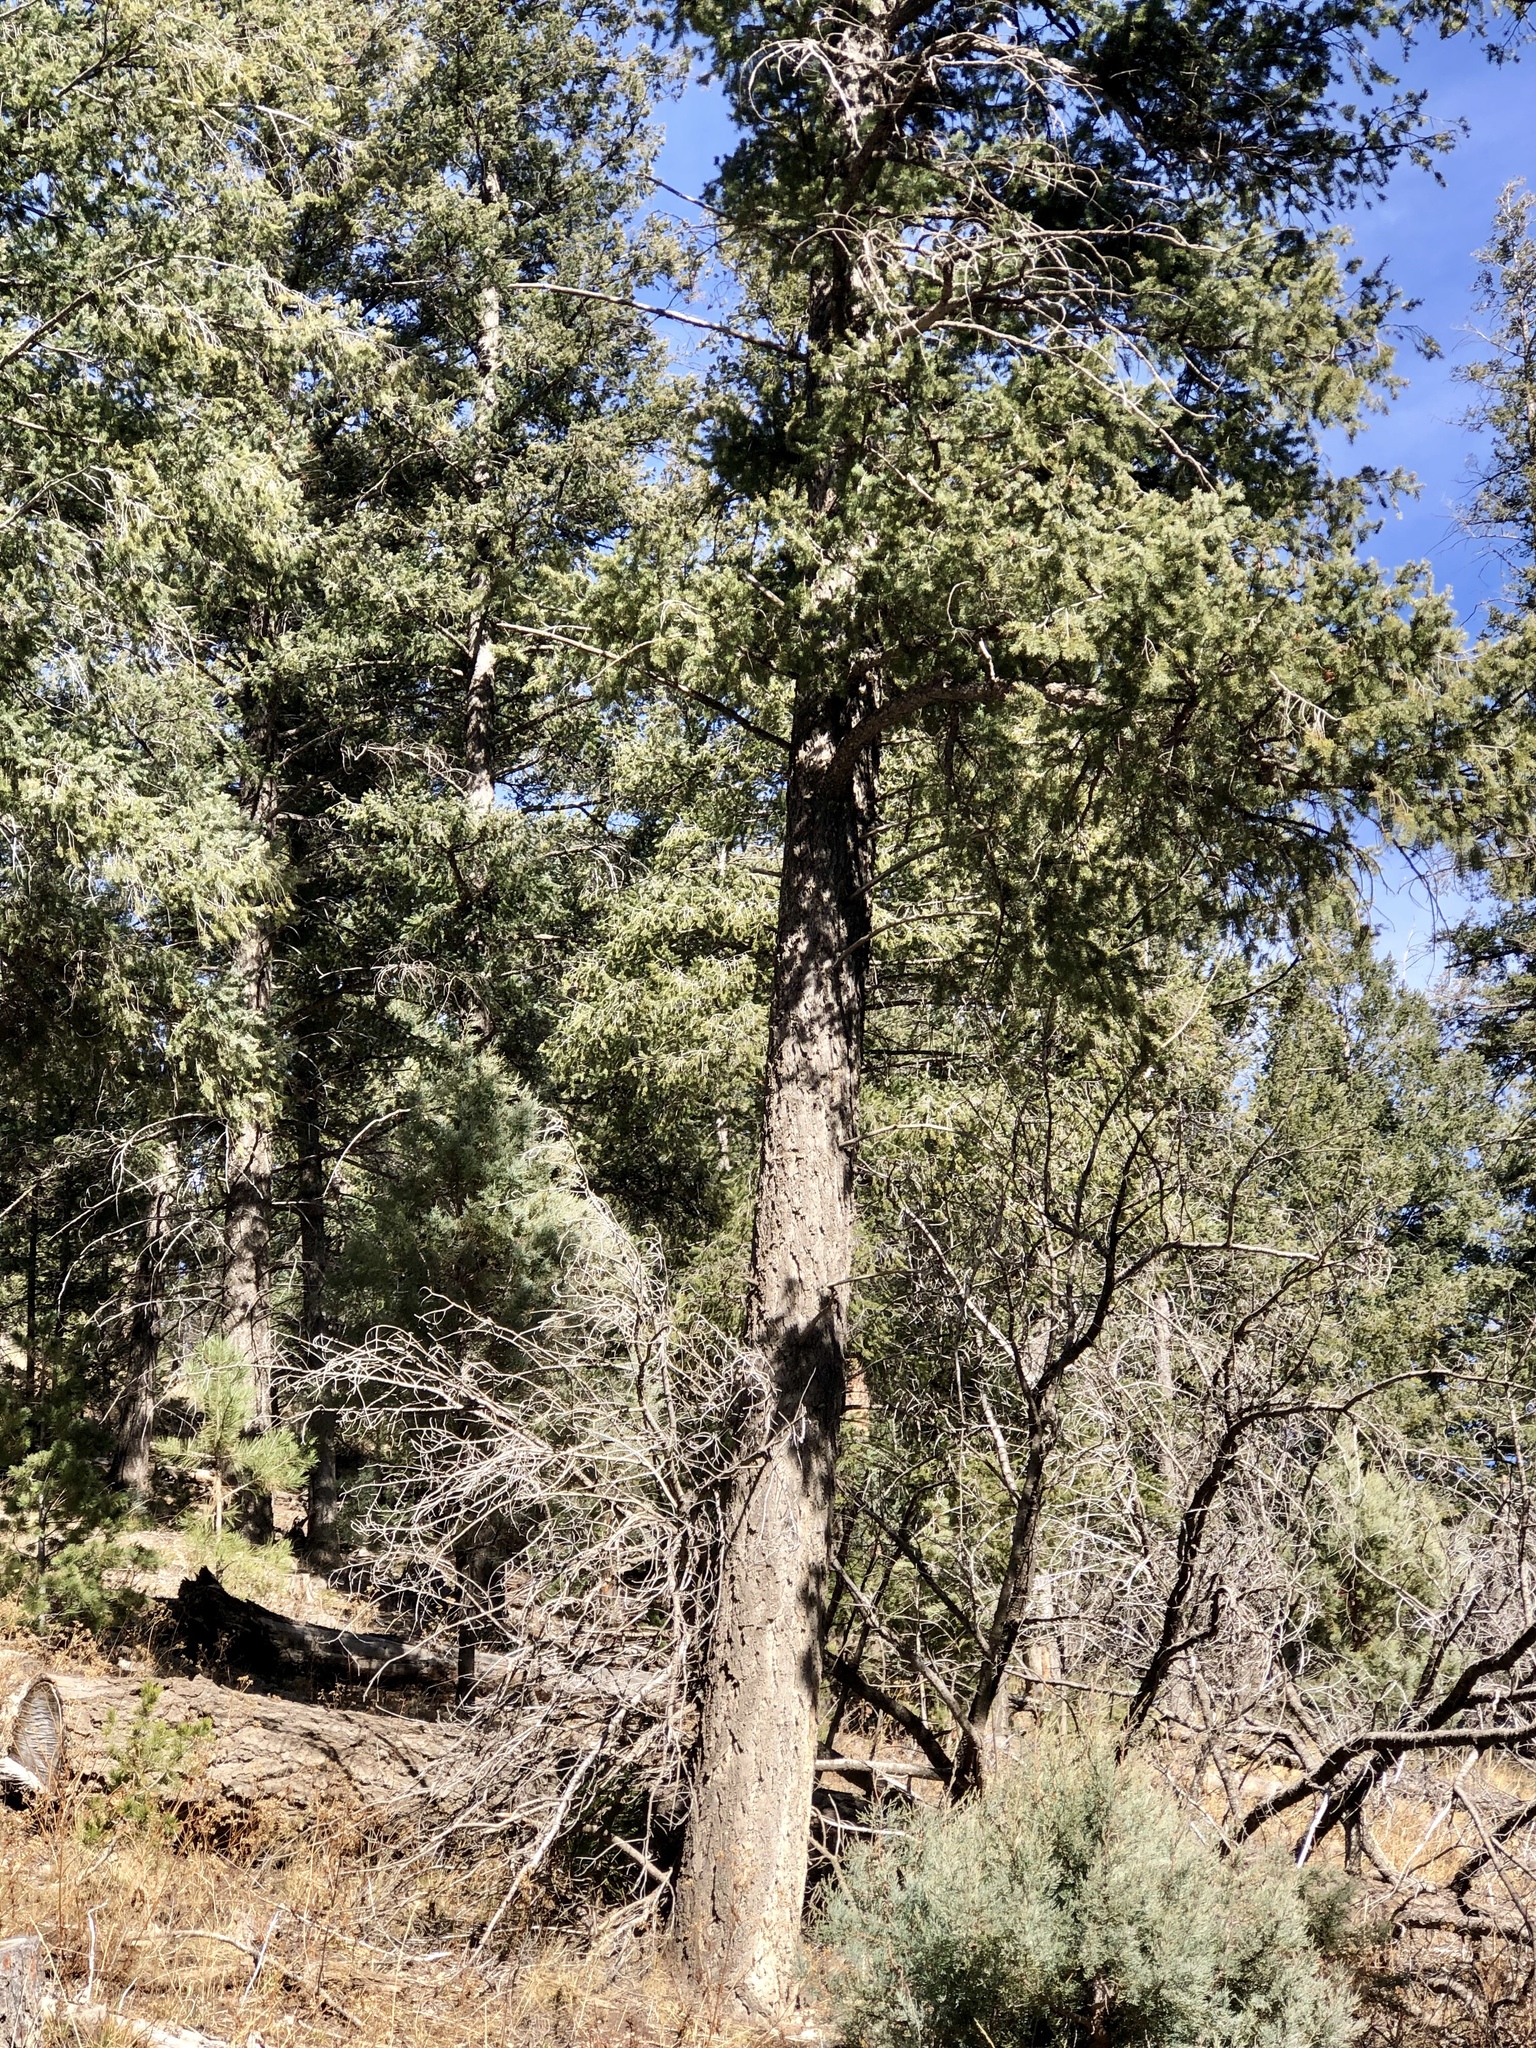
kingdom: Plantae
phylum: Tracheophyta
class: Pinopsida
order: Pinales
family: Pinaceae
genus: Pseudotsuga
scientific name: Pseudotsuga menziesii
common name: Douglas fir
